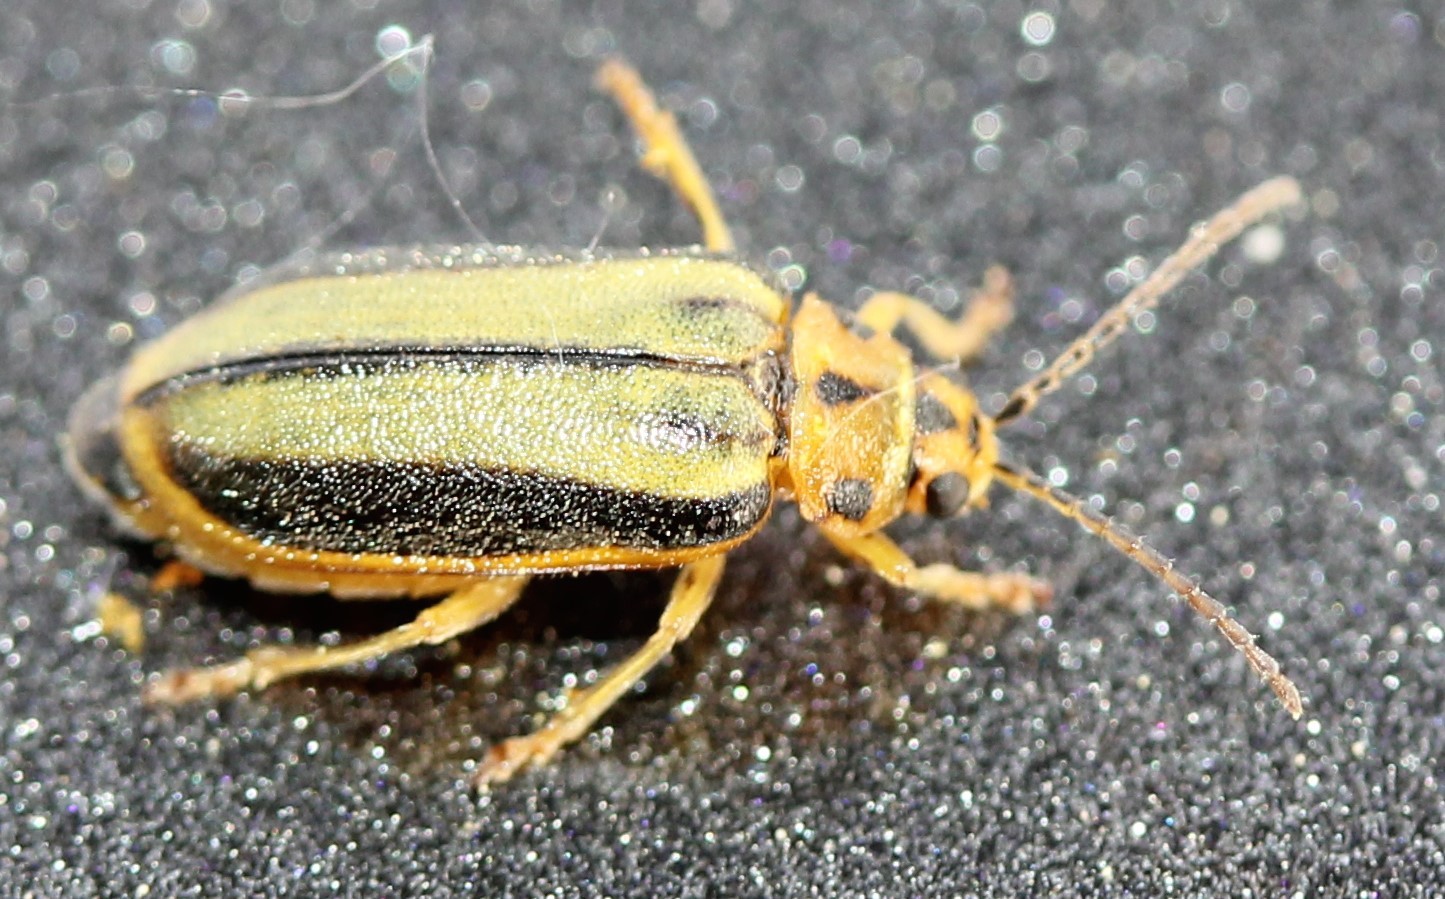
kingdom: Animalia
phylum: Arthropoda
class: Insecta
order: Coleoptera
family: Chrysomelidae
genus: Xanthogaleruca
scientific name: Xanthogaleruca luteola
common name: Elm leaf beetle
